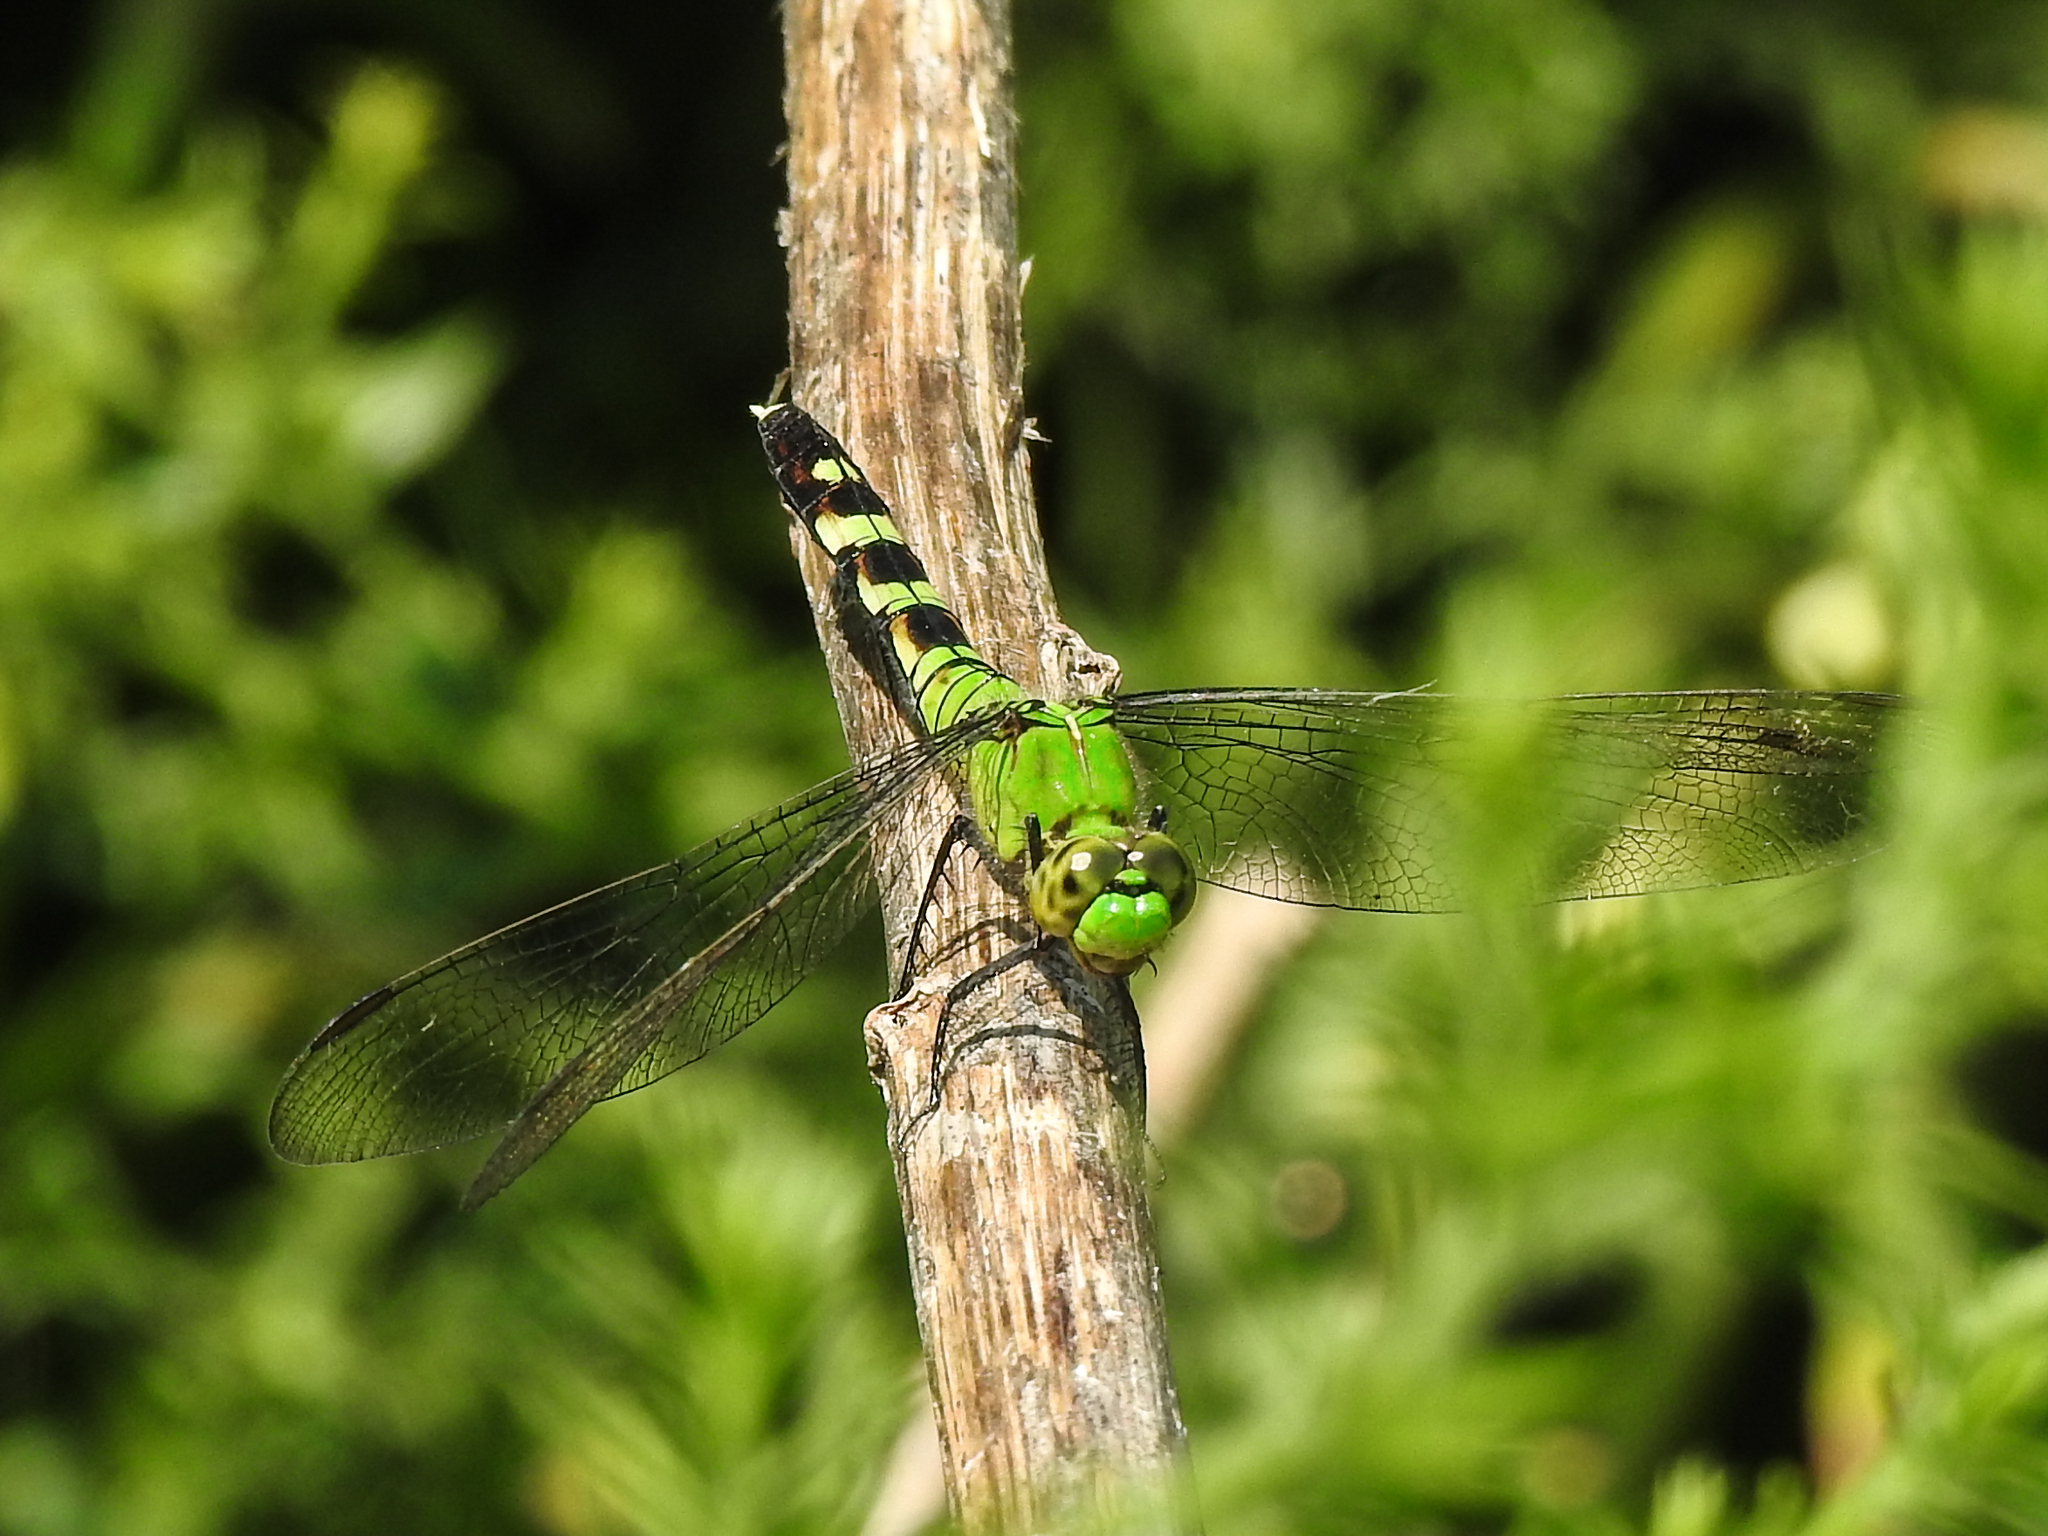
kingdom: Animalia
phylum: Arthropoda
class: Insecta
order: Odonata
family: Libellulidae
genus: Erythemis
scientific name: Erythemis simplicicollis
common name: Eastern pondhawk
